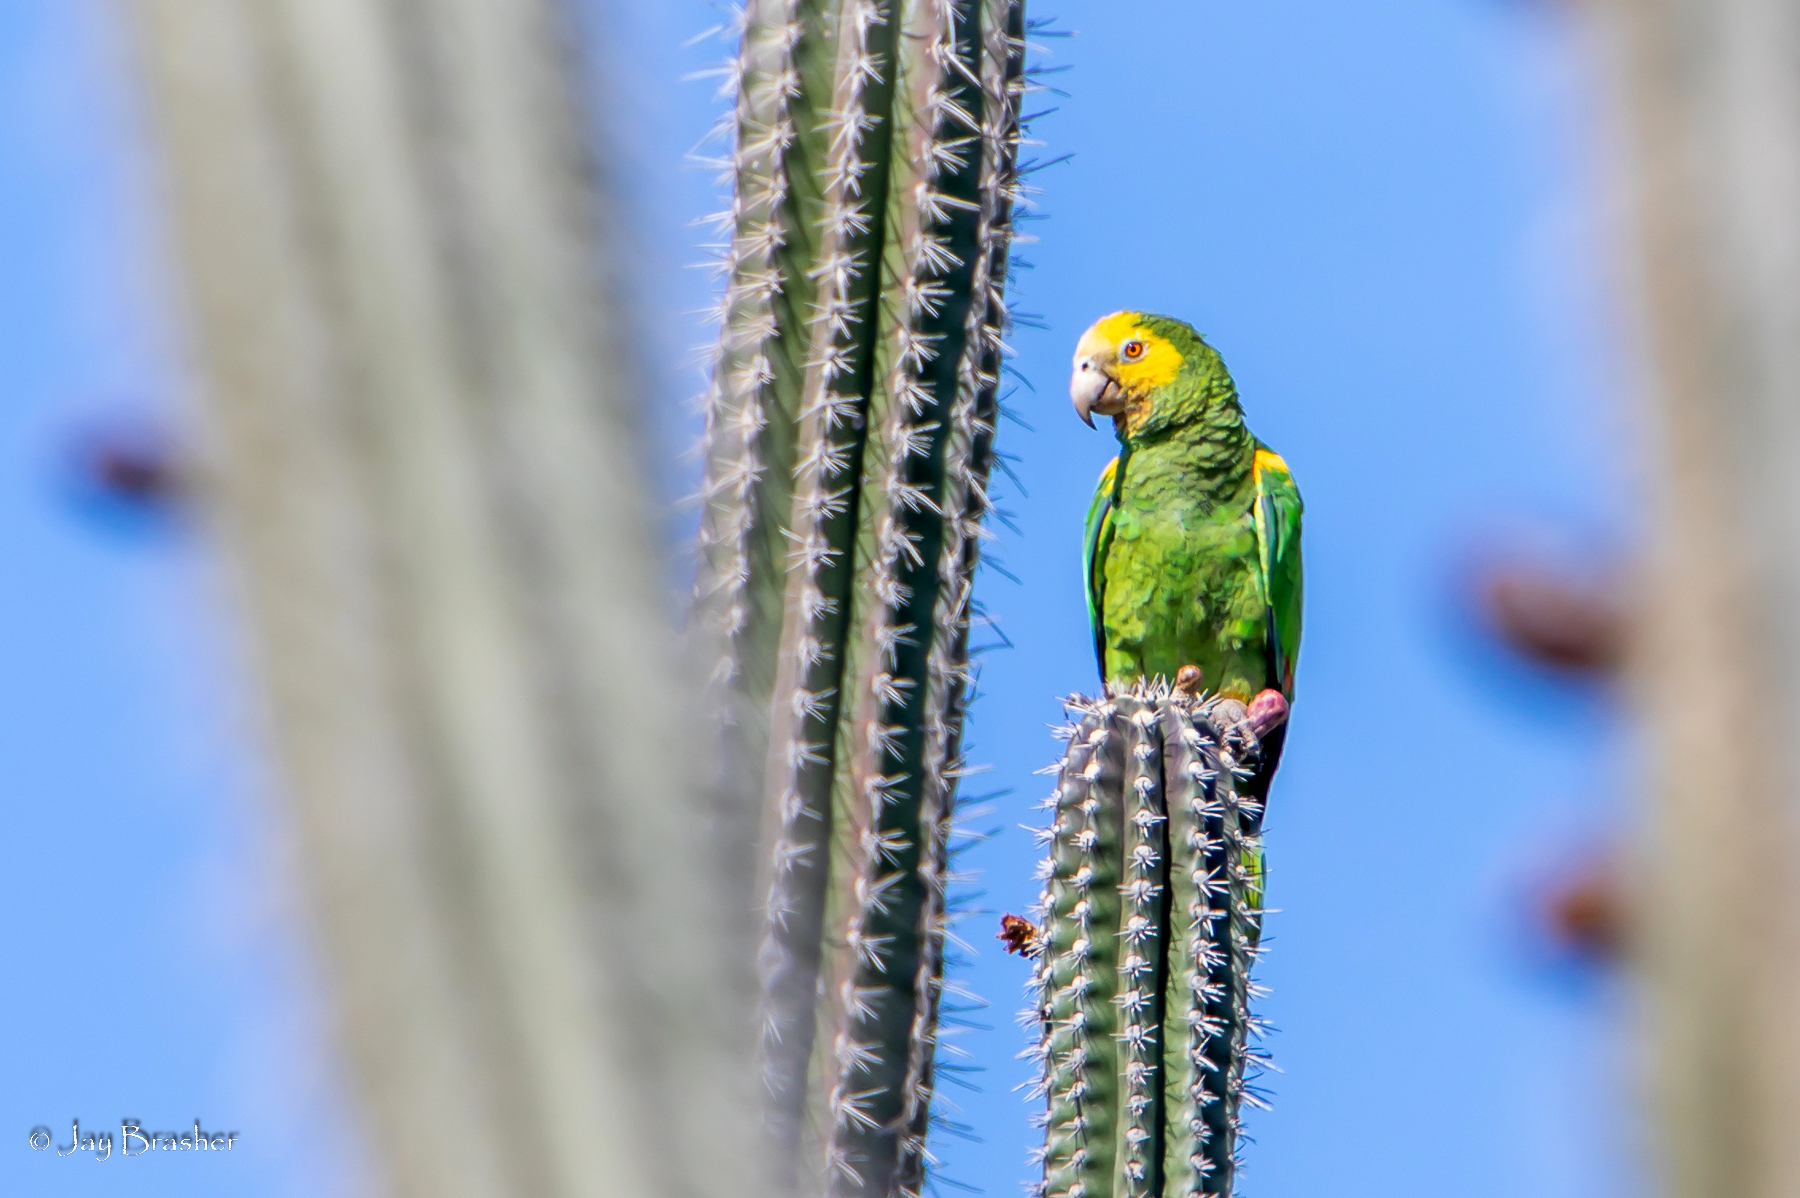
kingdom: Animalia
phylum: Chordata
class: Aves
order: Psittaciformes
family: Psittacidae
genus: Amazona
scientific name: Amazona barbadensis
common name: Yellow-shouldered amazon
